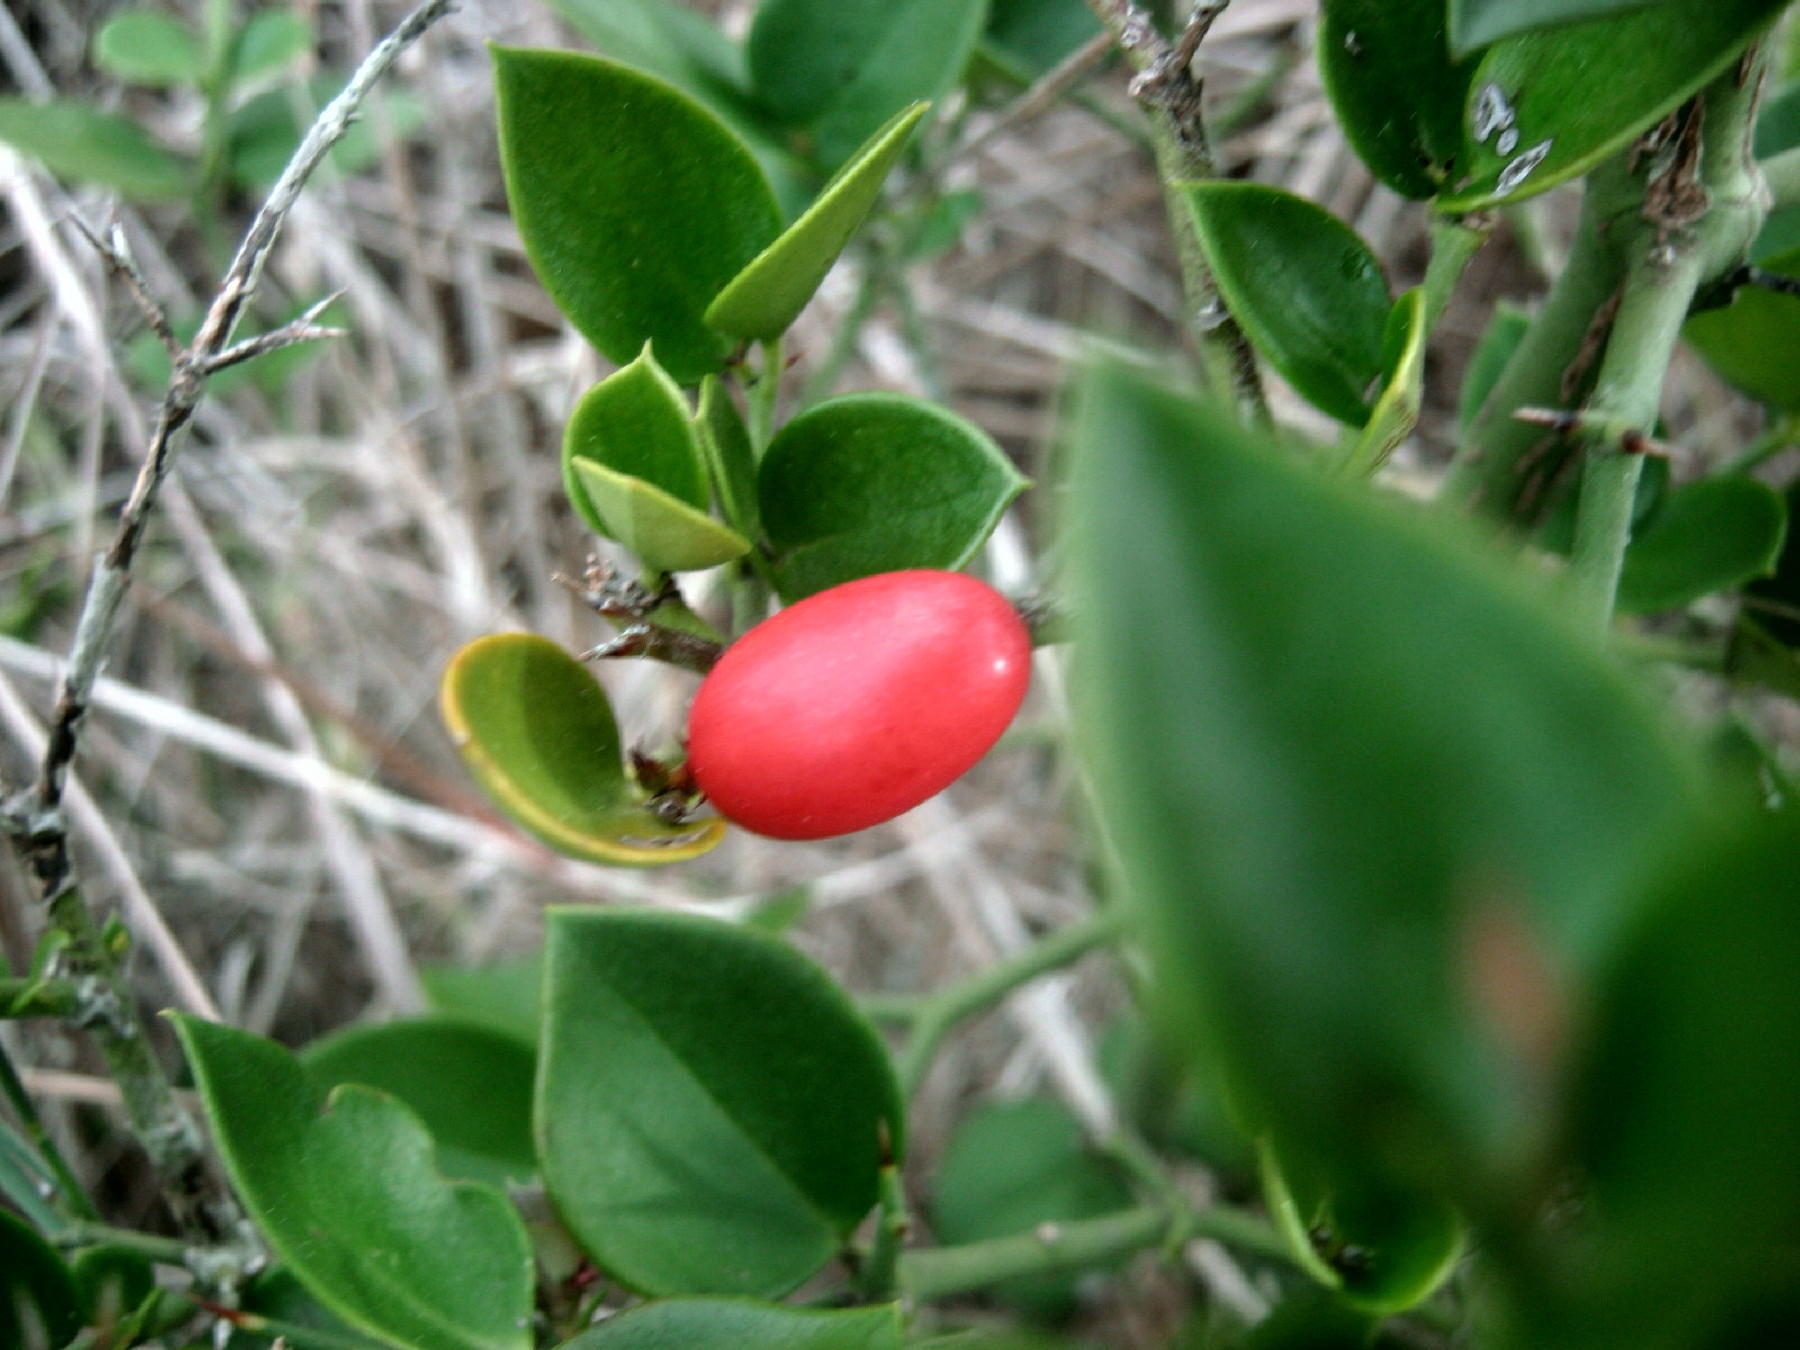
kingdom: Plantae
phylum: Tracheophyta
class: Magnoliopsida
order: Gentianales
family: Apocynaceae
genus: Carissa
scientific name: Carissa bispinosa
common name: Forest num-num
